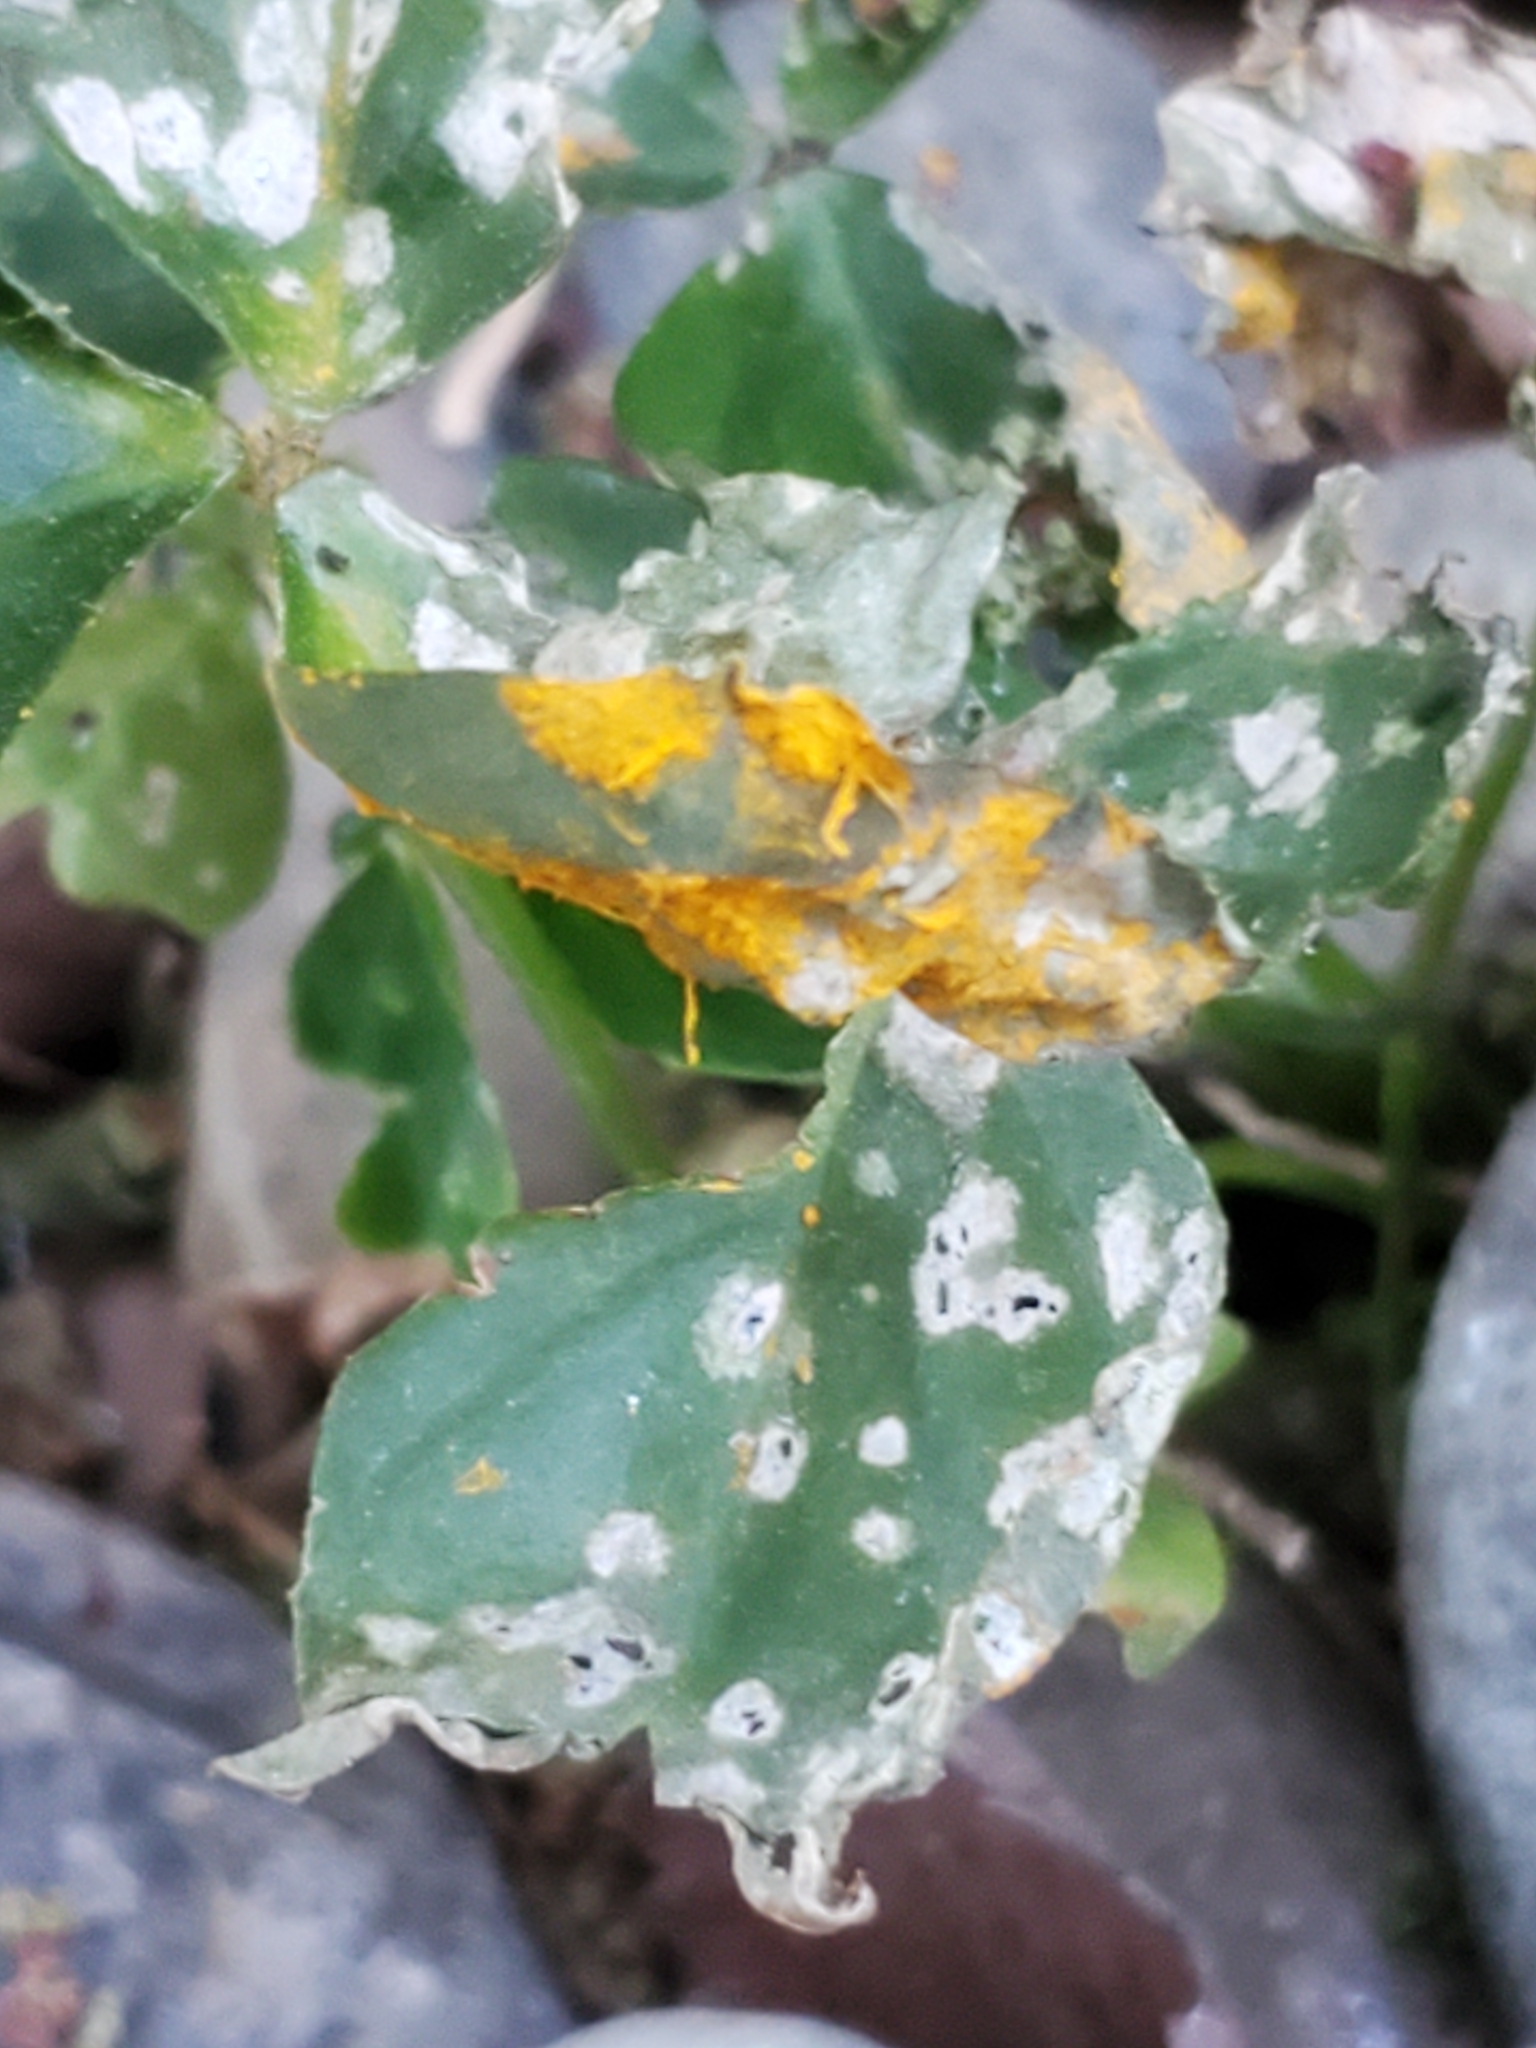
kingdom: Fungi
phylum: Basidiomycota
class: Pucciniomycetes
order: Pucciniales
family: Pucciniaceae
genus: Puccinia
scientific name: Puccinia oxalidis
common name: Oxalis rust
